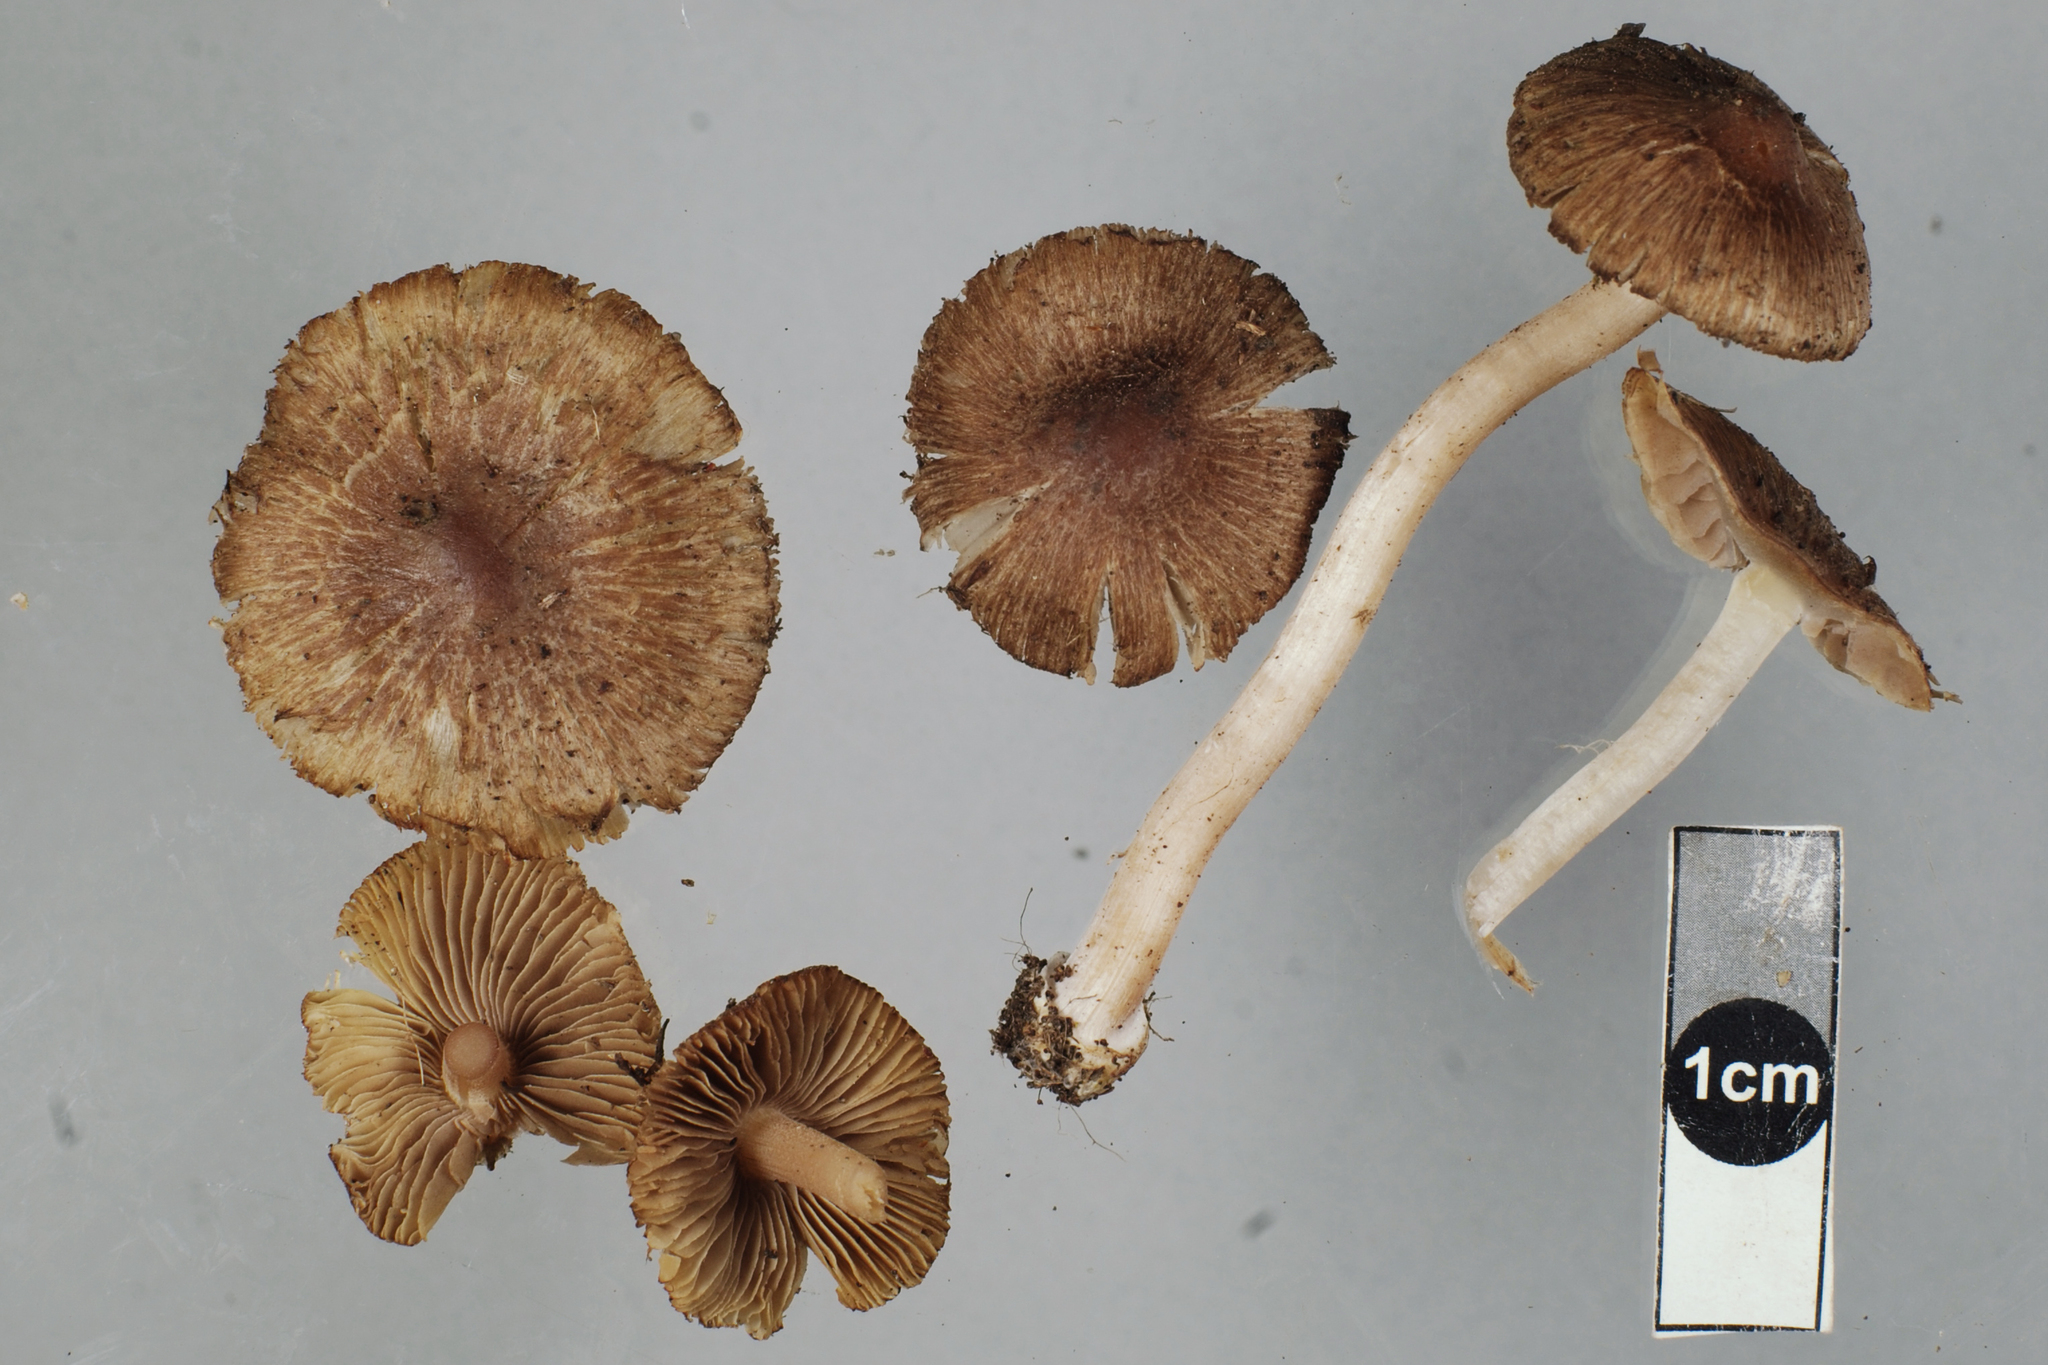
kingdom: Fungi
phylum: Basidiomycota
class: Agaricomycetes
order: Agaricales
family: Inocybaceae
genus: Inocybe
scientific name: Inocybe leptospermi
